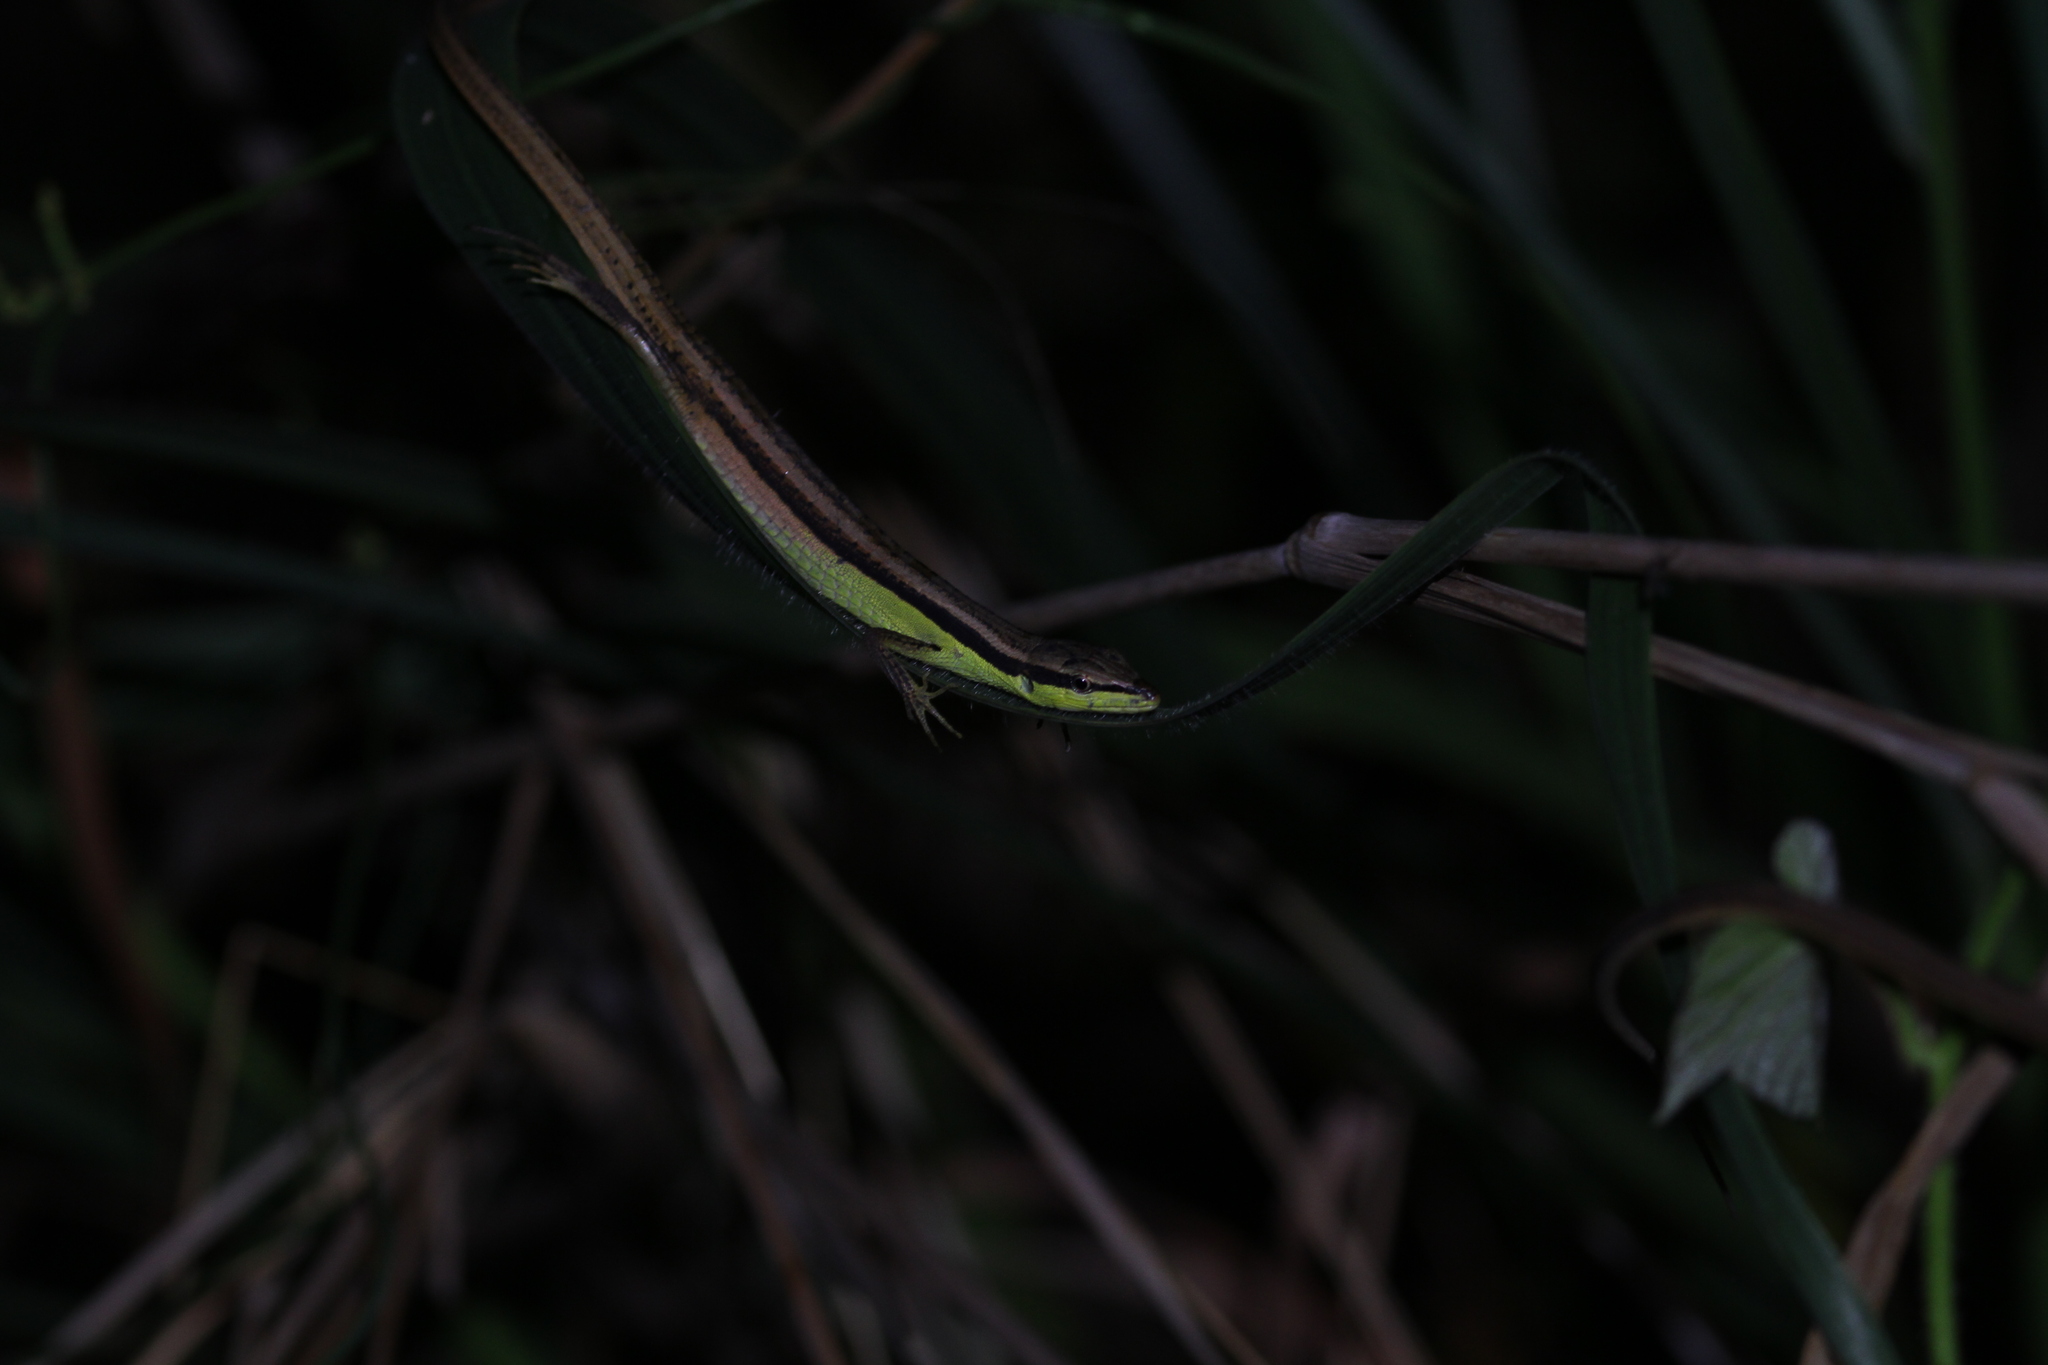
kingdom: Animalia
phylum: Chordata
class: Squamata
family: Lacertidae
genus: Takydromus
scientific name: Takydromus sexlineatus
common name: Asian grass lizard
